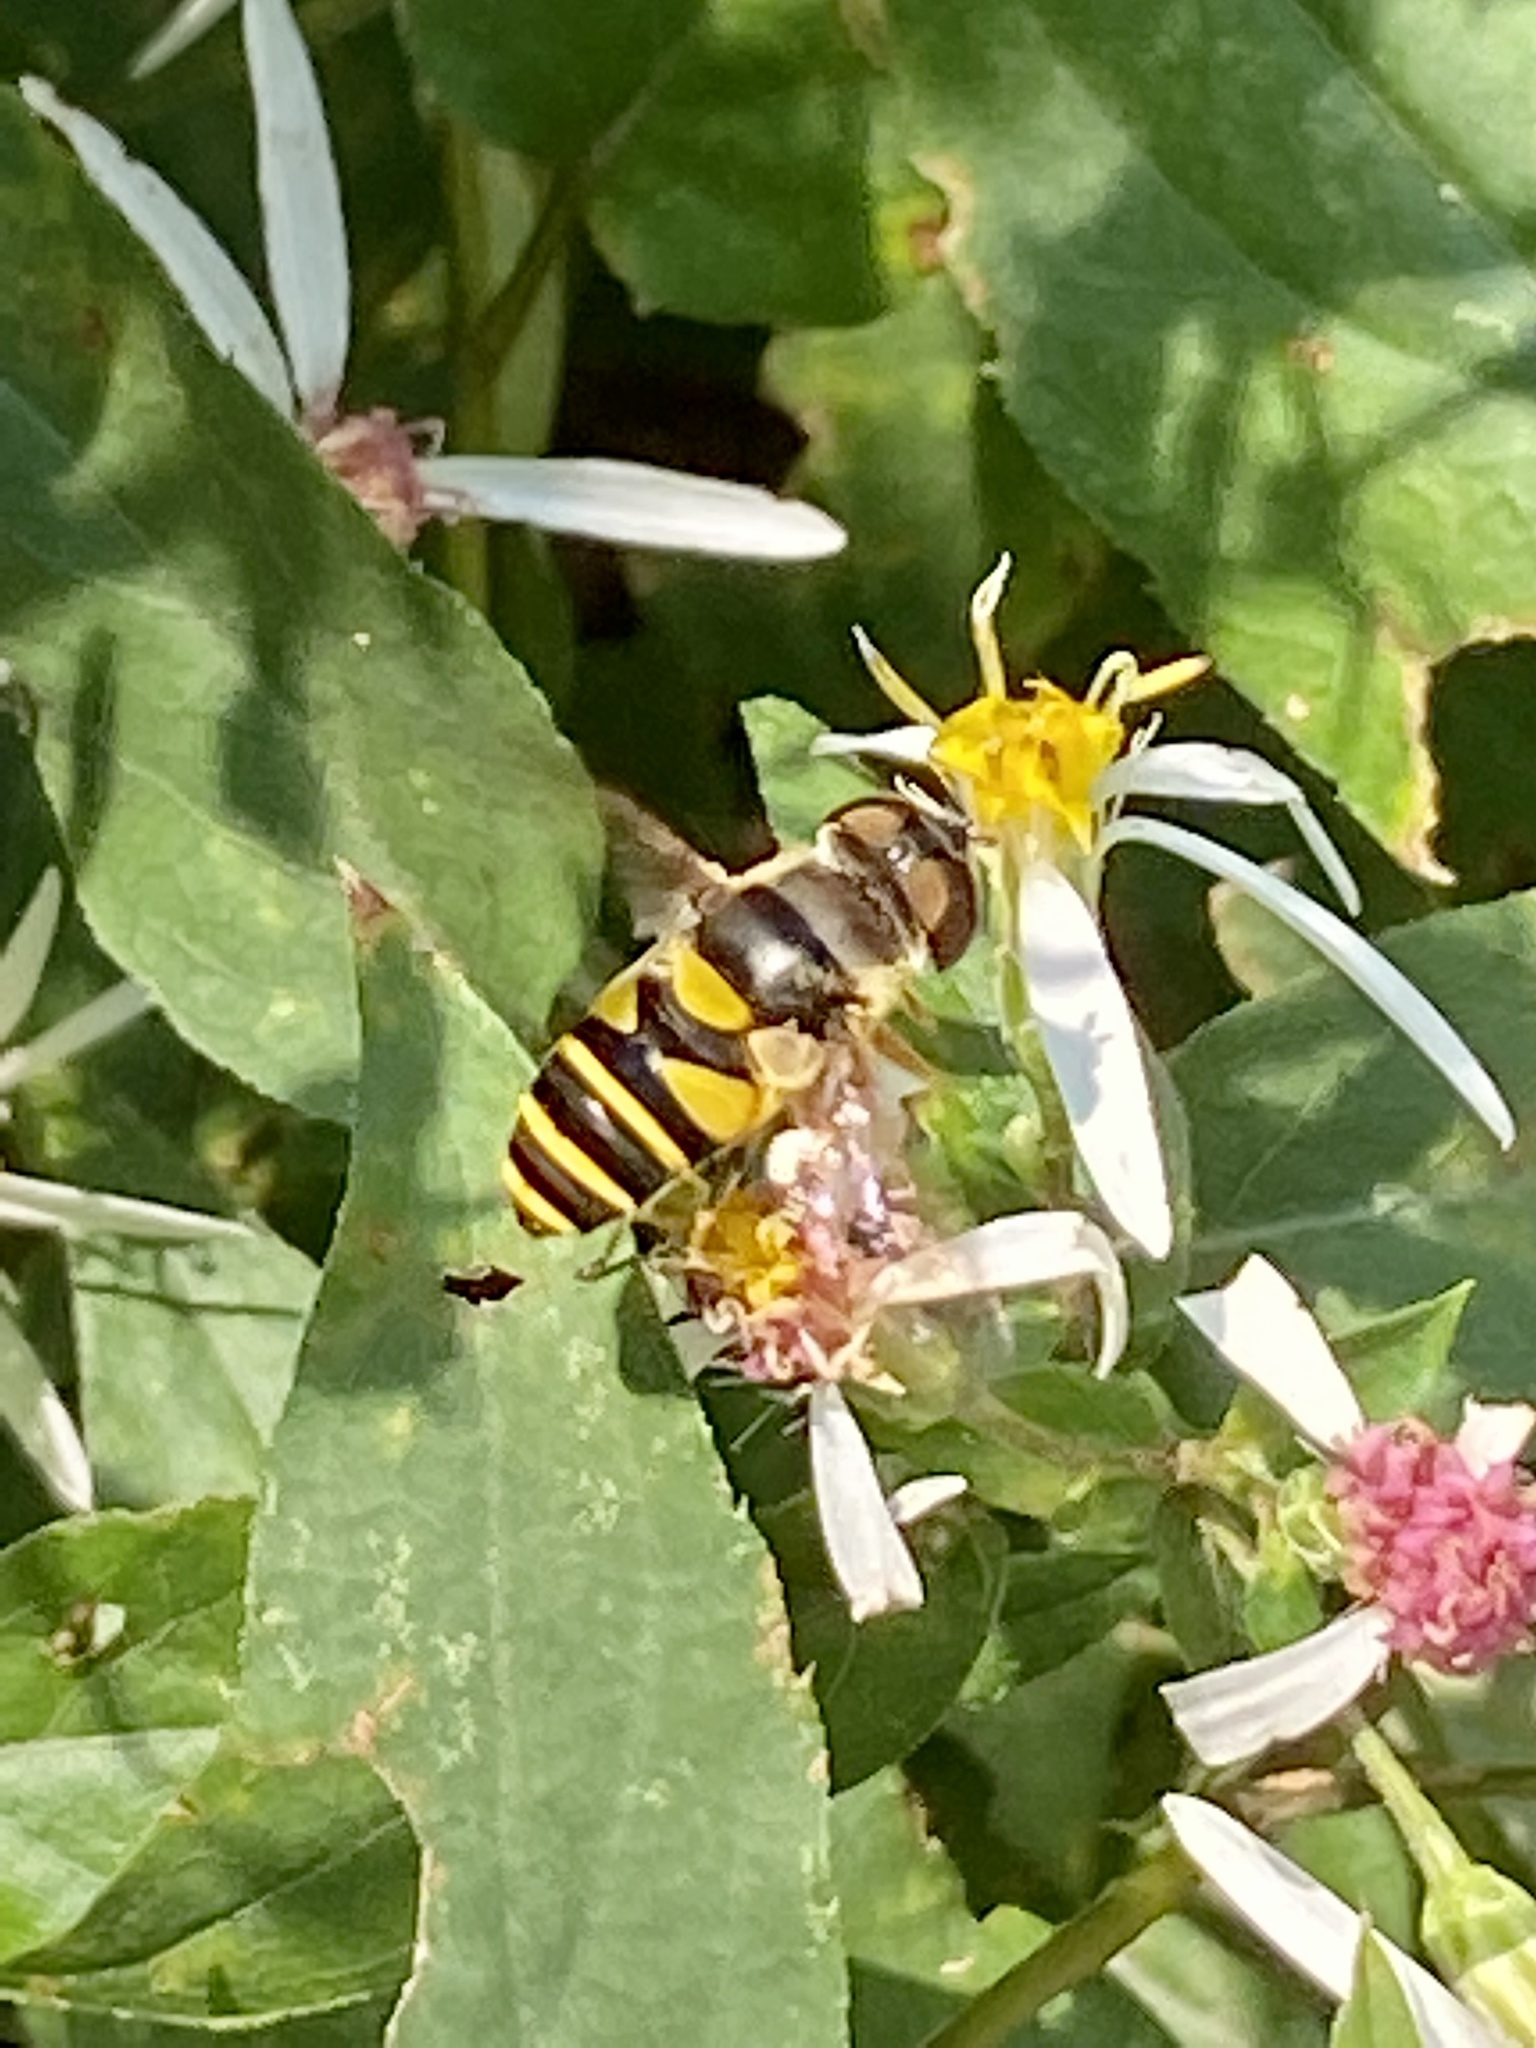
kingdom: Animalia
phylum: Arthropoda
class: Insecta
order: Diptera
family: Syrphidae
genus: Eristalis
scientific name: Eristalis transversa
